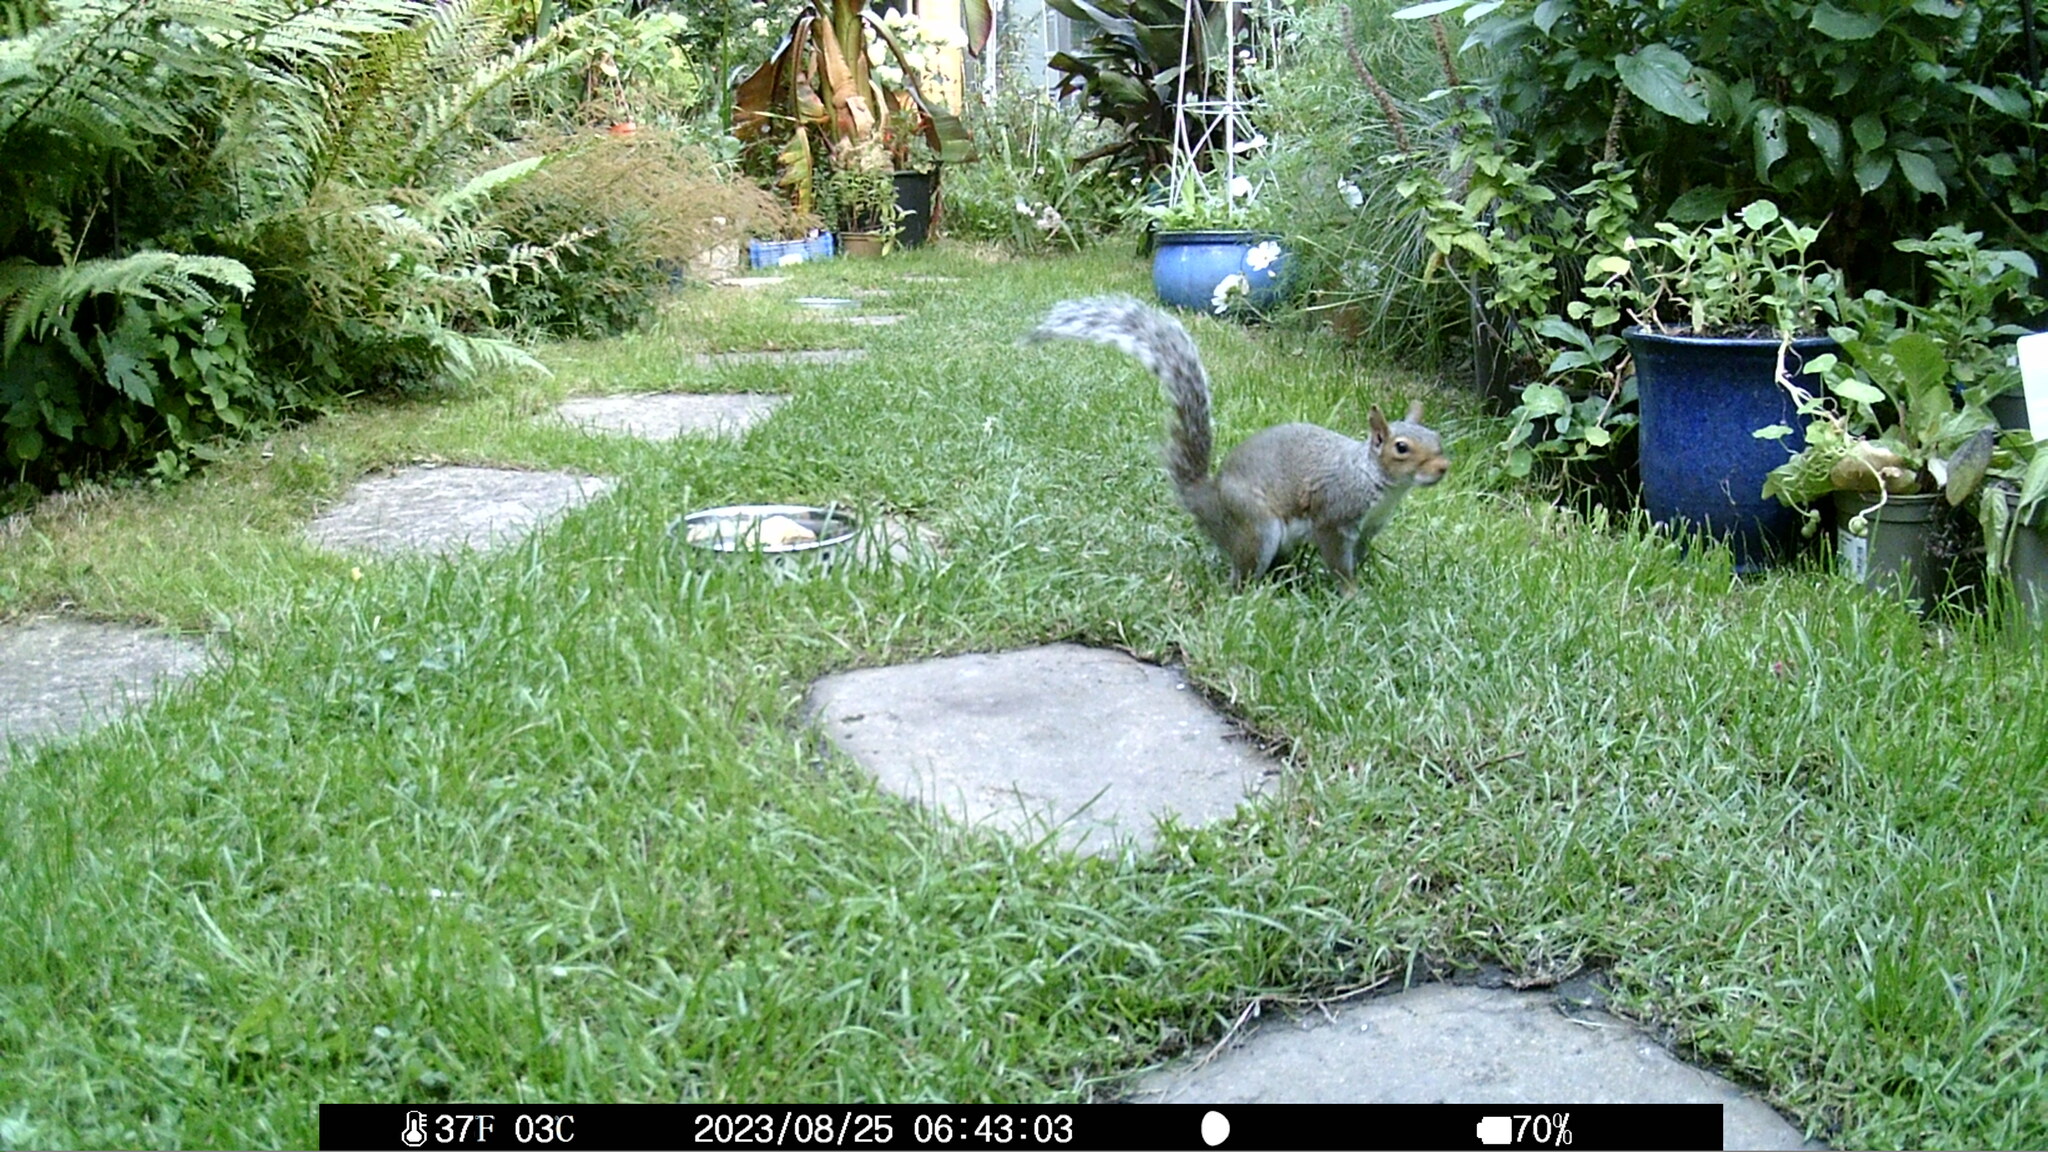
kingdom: Animalia
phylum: Chordata
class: Mammalia
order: Rodentia
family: Sciuridae
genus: Sciurus
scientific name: Sciurus carolinensis
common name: Eastern gray squirrel
